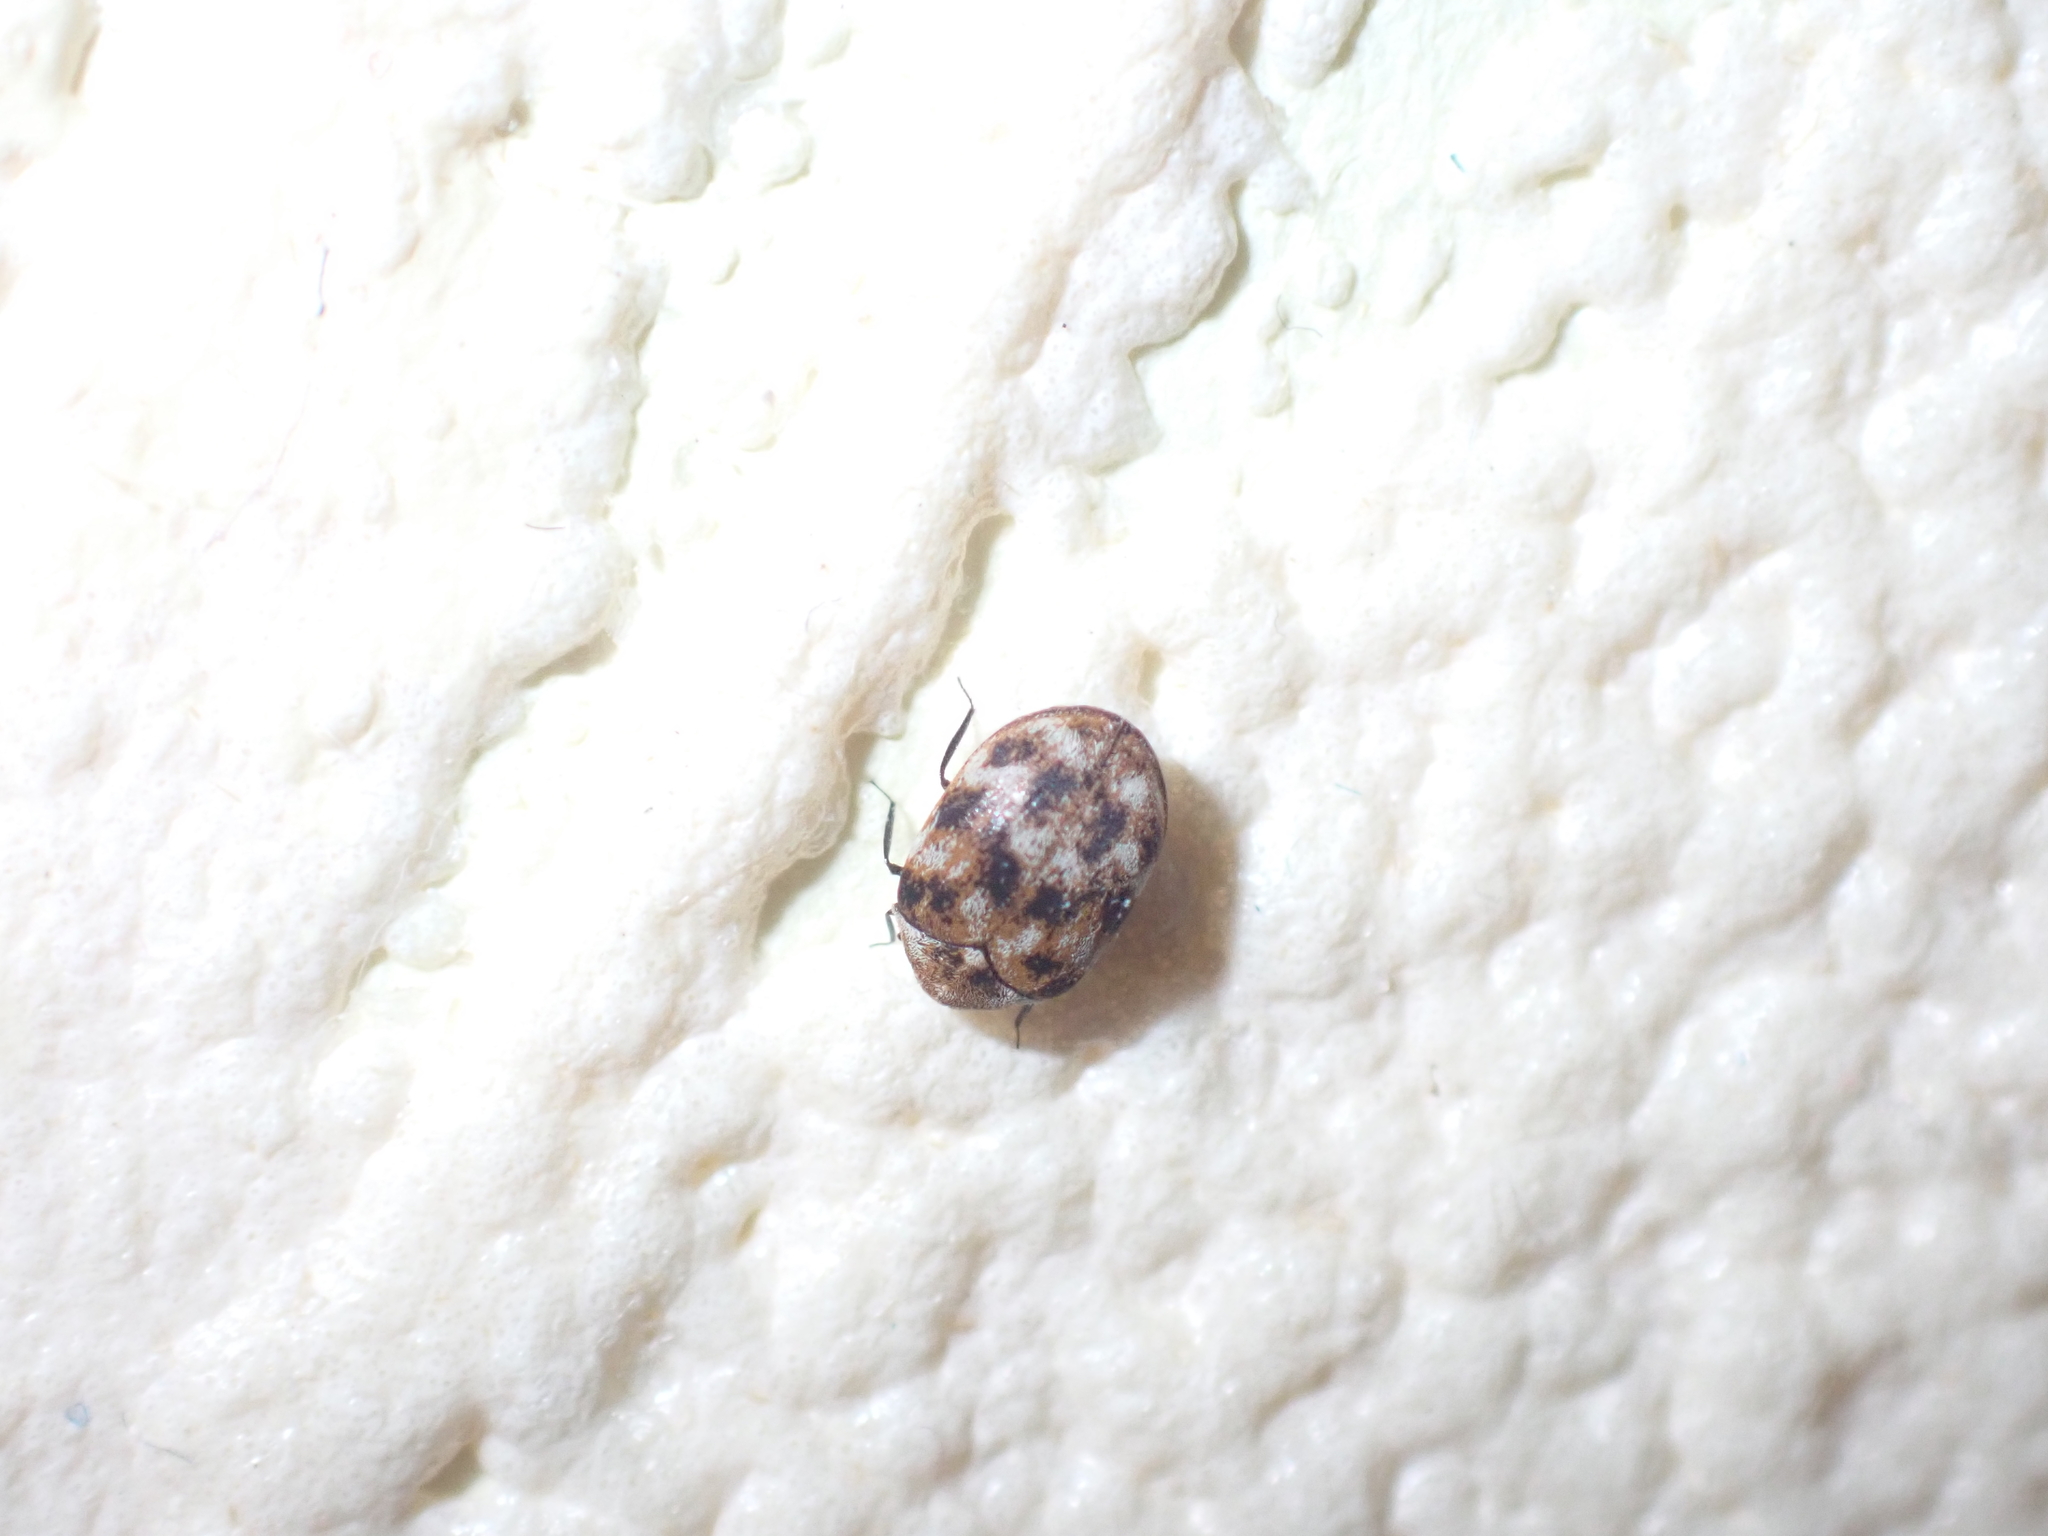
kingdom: Animalia
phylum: Arthropoda
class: Insecta
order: Coleoptera
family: Dermestidae
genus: Anthrenus
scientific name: Anthrenus verbasci
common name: Varied carpet beetle
